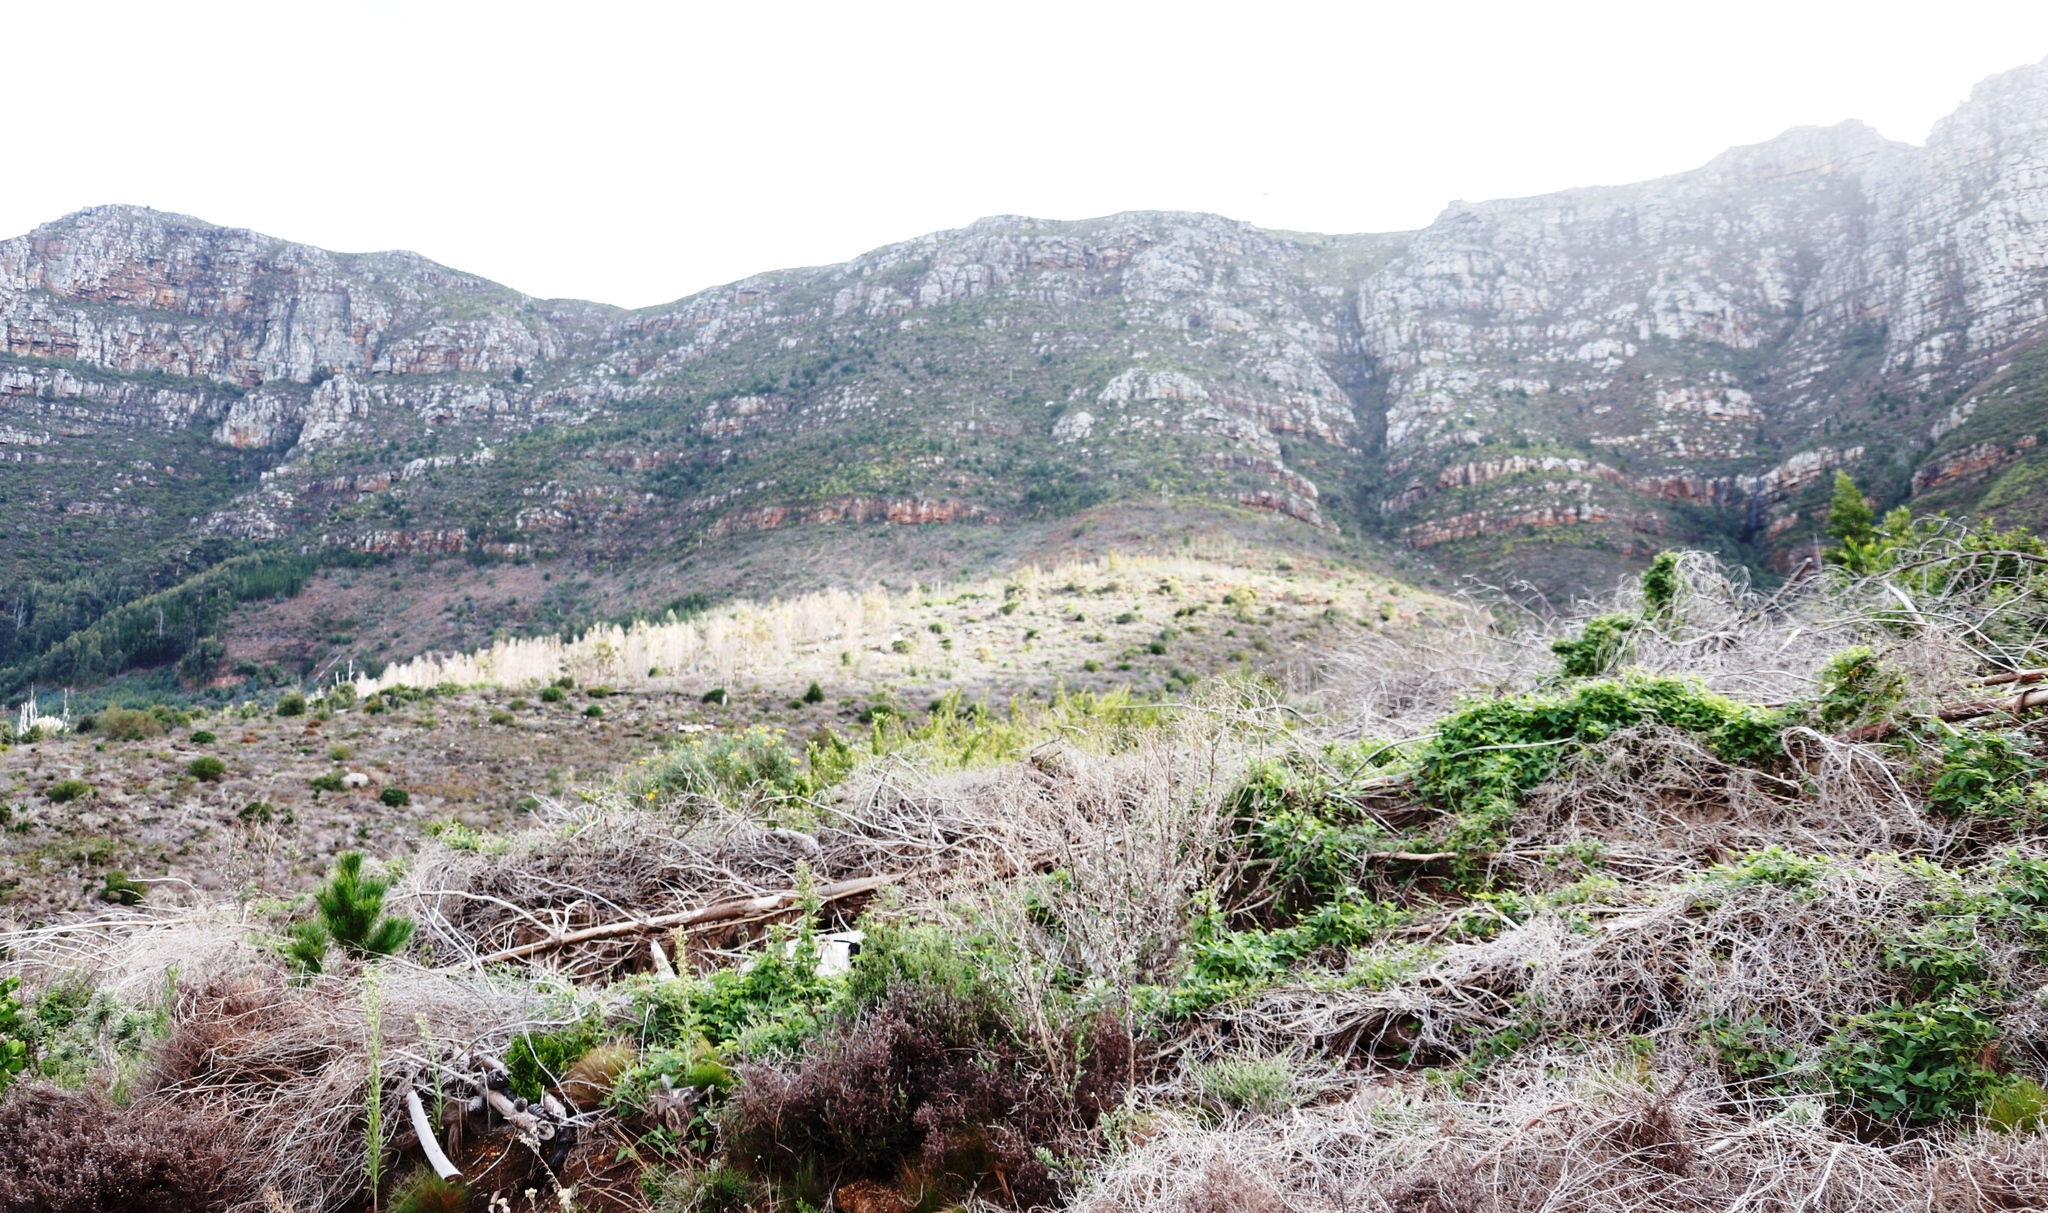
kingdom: Plantae
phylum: Tracheophyta
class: Magnoliopsida
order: Fabales
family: Fabaceae
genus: Acacia
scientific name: Acacia melanoxylon
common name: Blackwood
